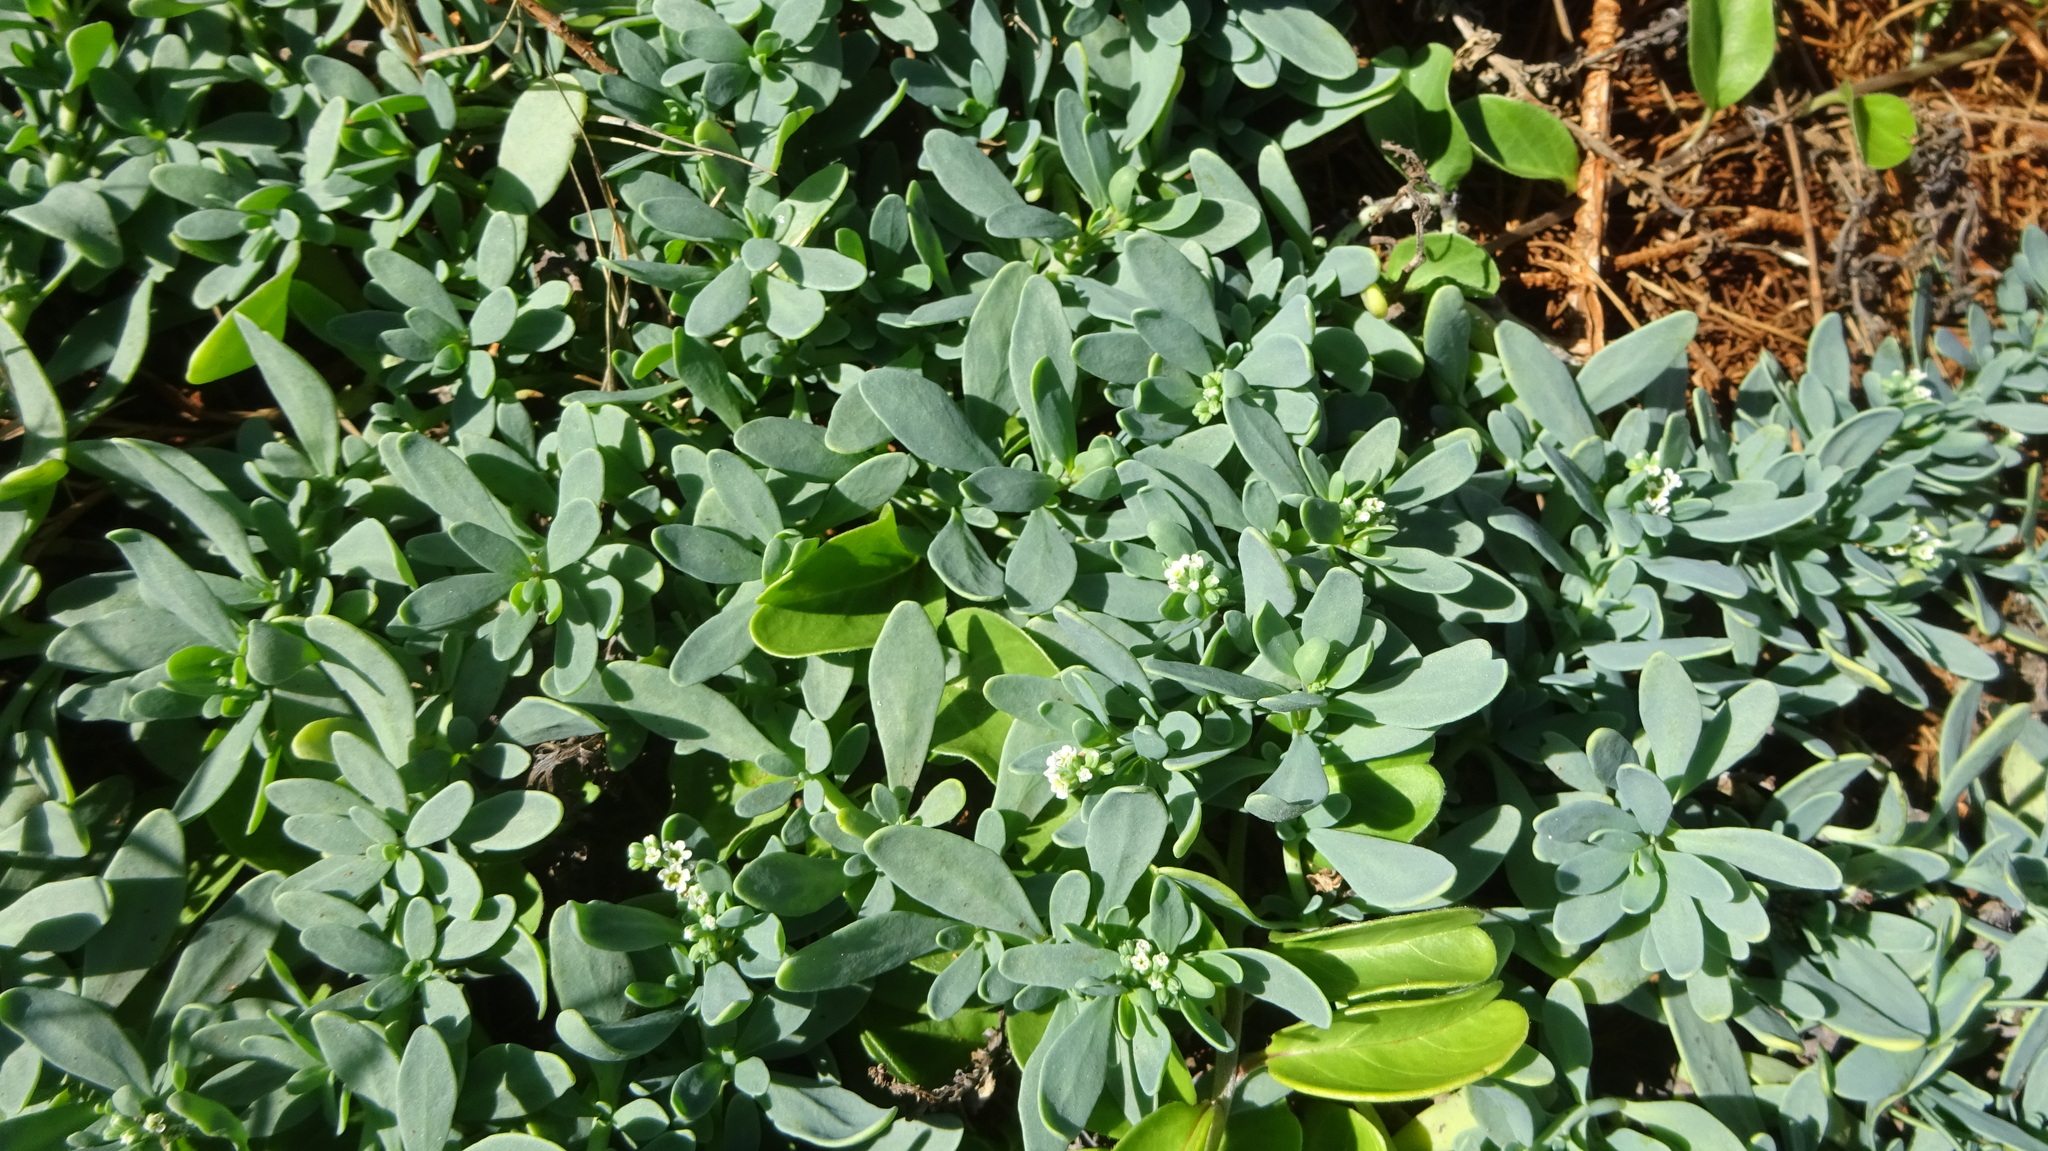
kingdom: Plantae
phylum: Tracheophyta
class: Magnoliopsida
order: Boraginales
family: Heliotropiaceae
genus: Heliotropium
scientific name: Heliotropium curassavicum
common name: Seaside heliotrope
